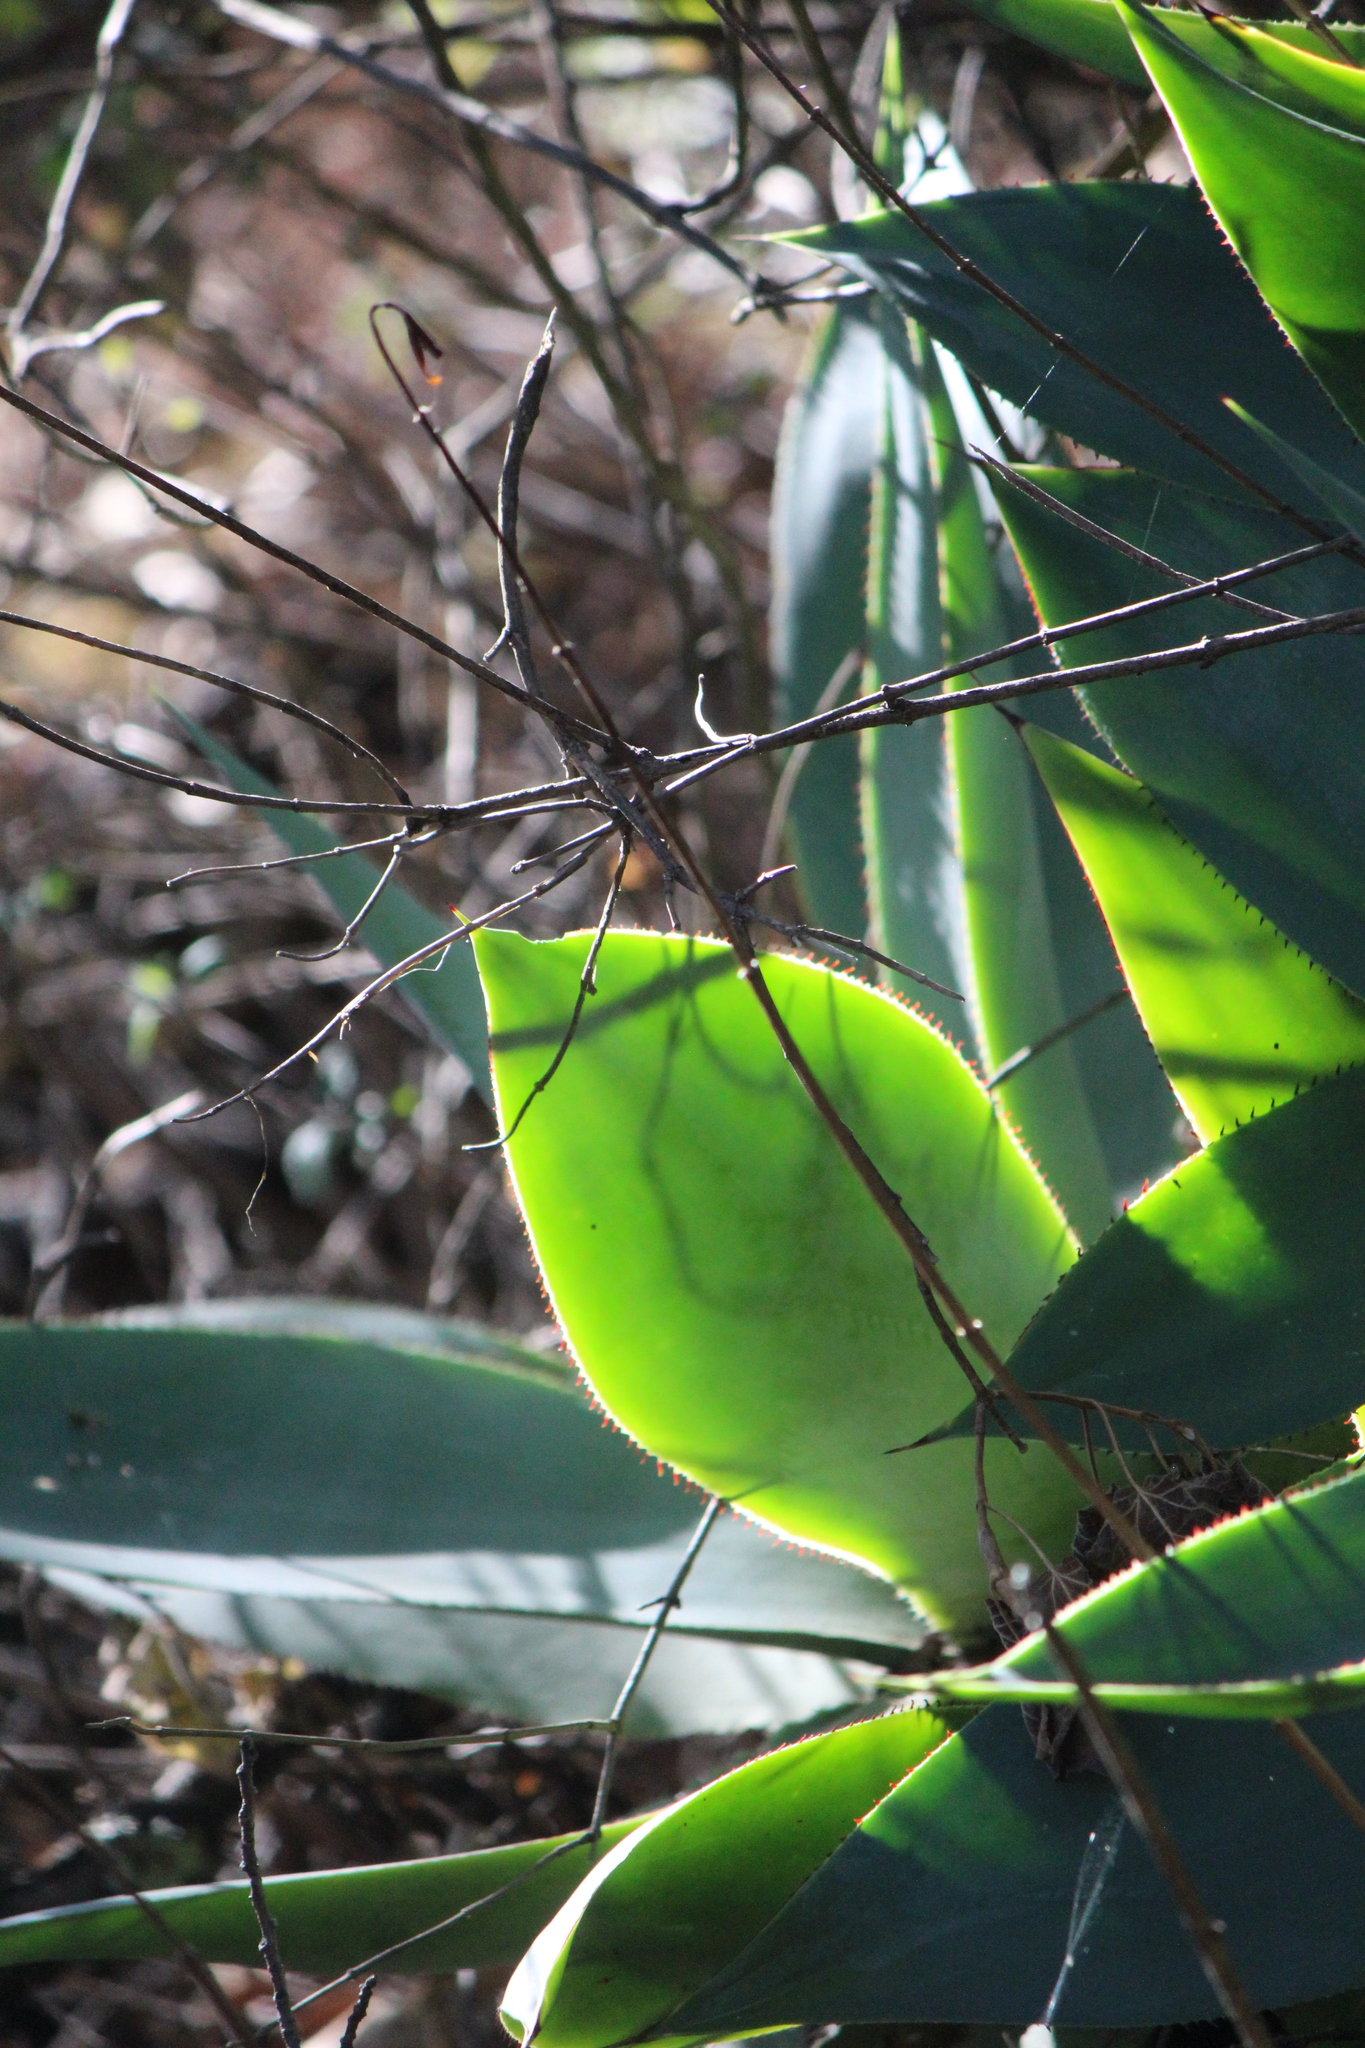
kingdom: Plantae
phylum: Tracheophyta
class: Liliopsida
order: Asparagales
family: Asparagaceae
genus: Agave
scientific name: Agave mitis
